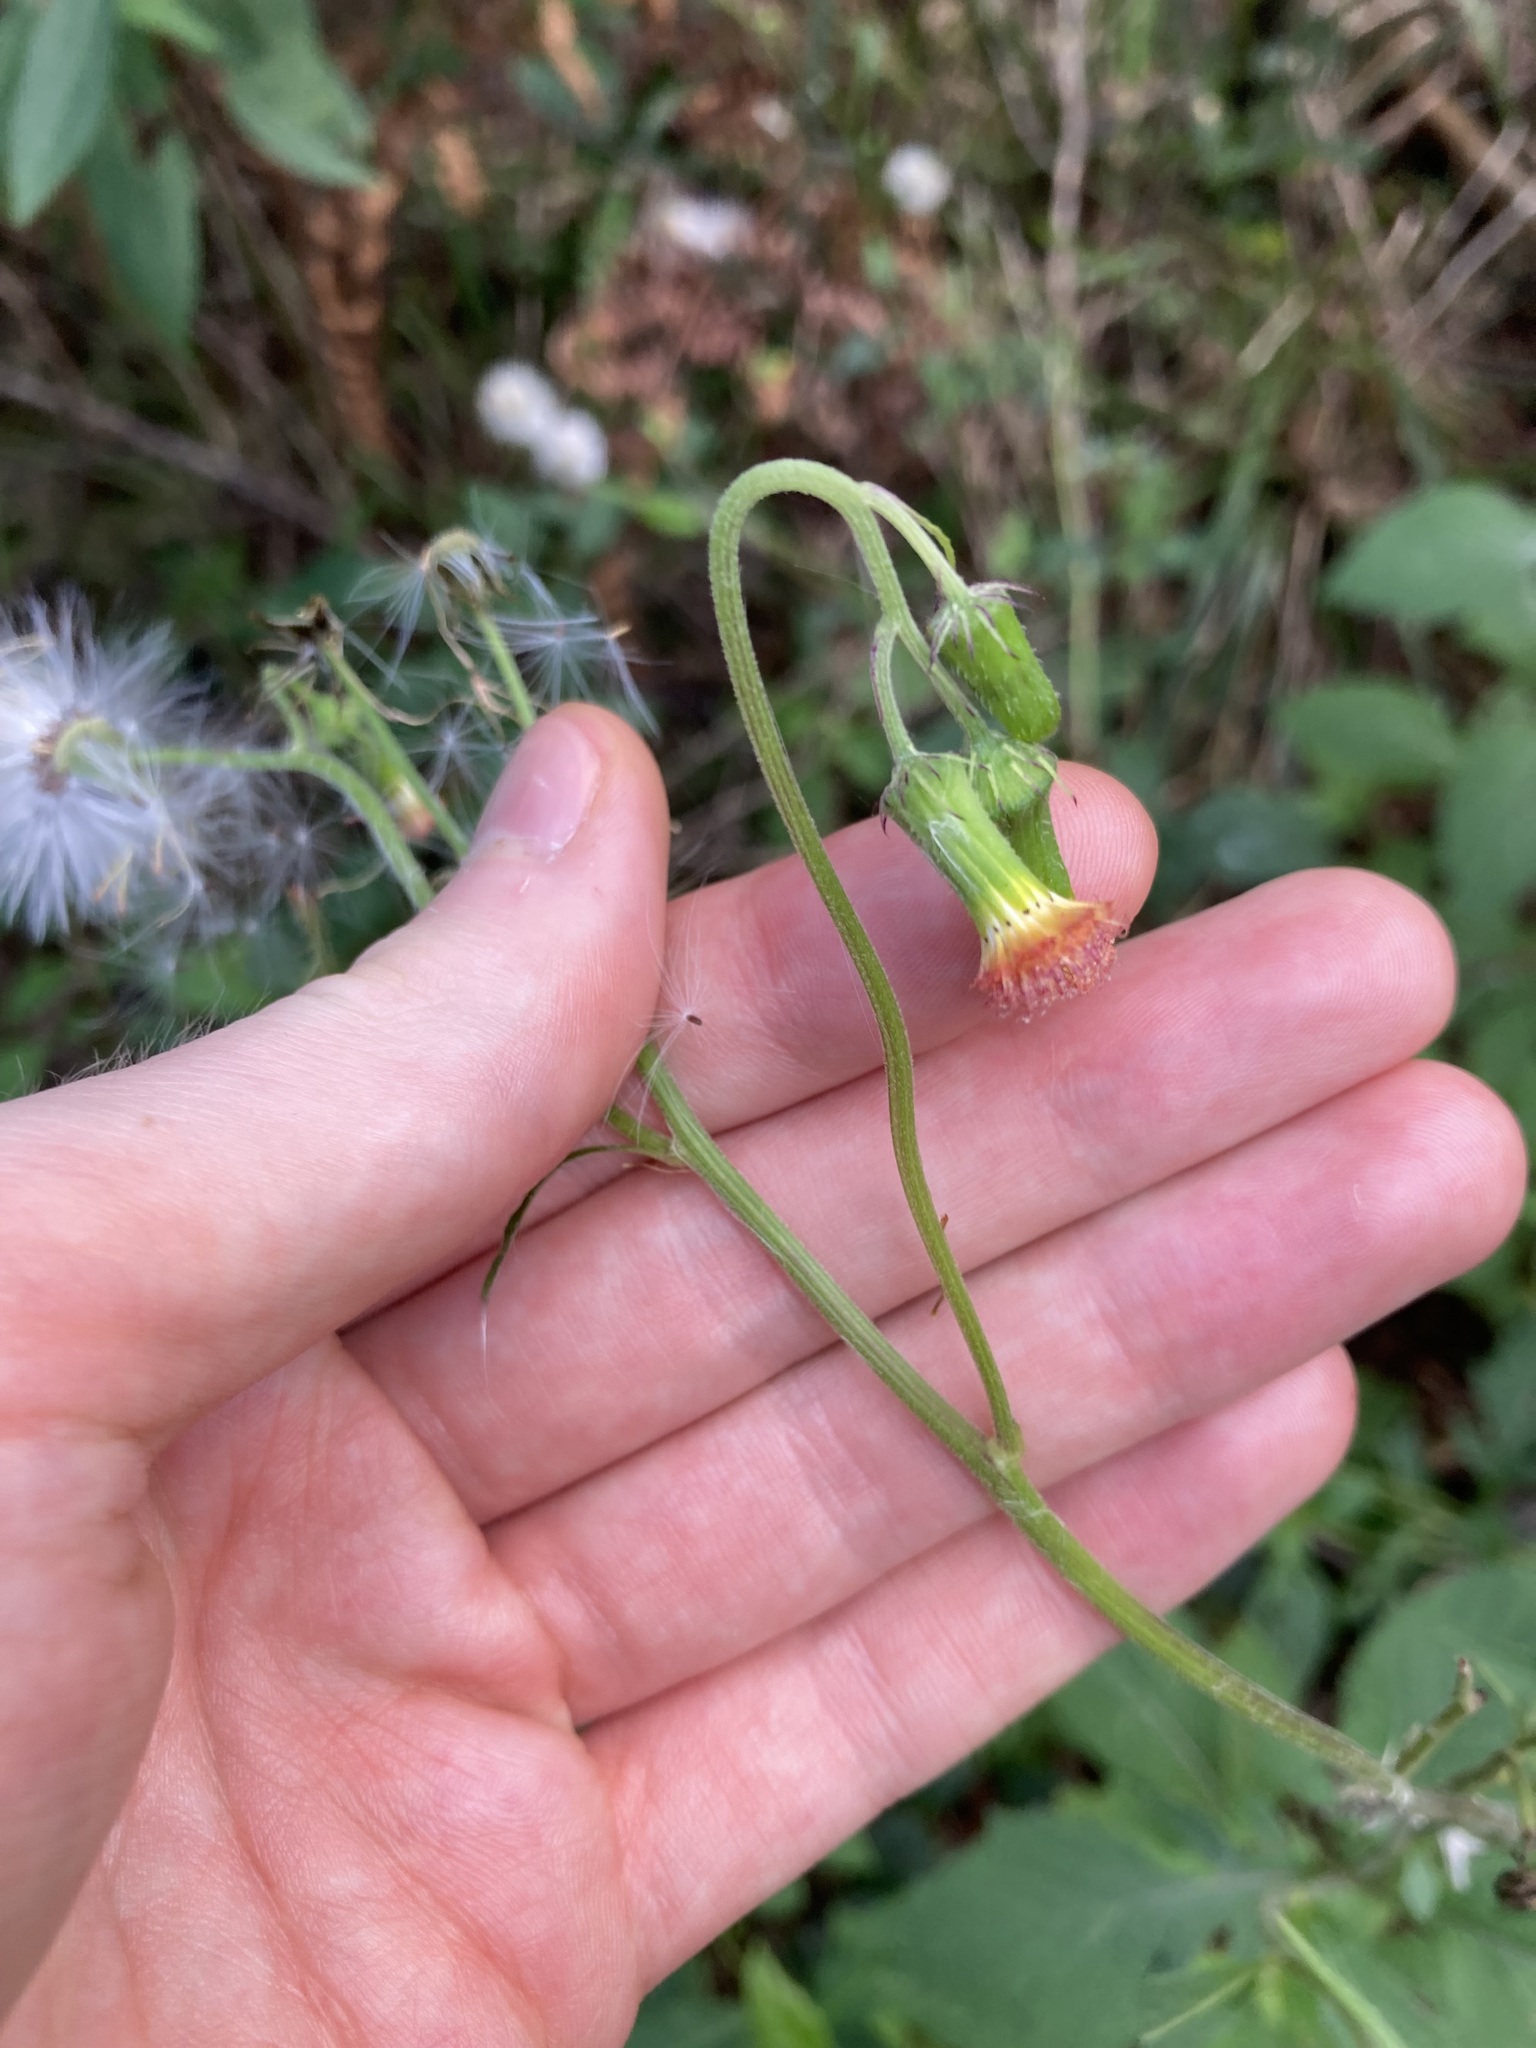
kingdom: Plantae
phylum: Tracheophyta
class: Magnoliopsida
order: Asterales
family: Asteraceae
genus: Crassocephalum
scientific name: Crassocephalum crepidioides
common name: Redflower ragleaf
